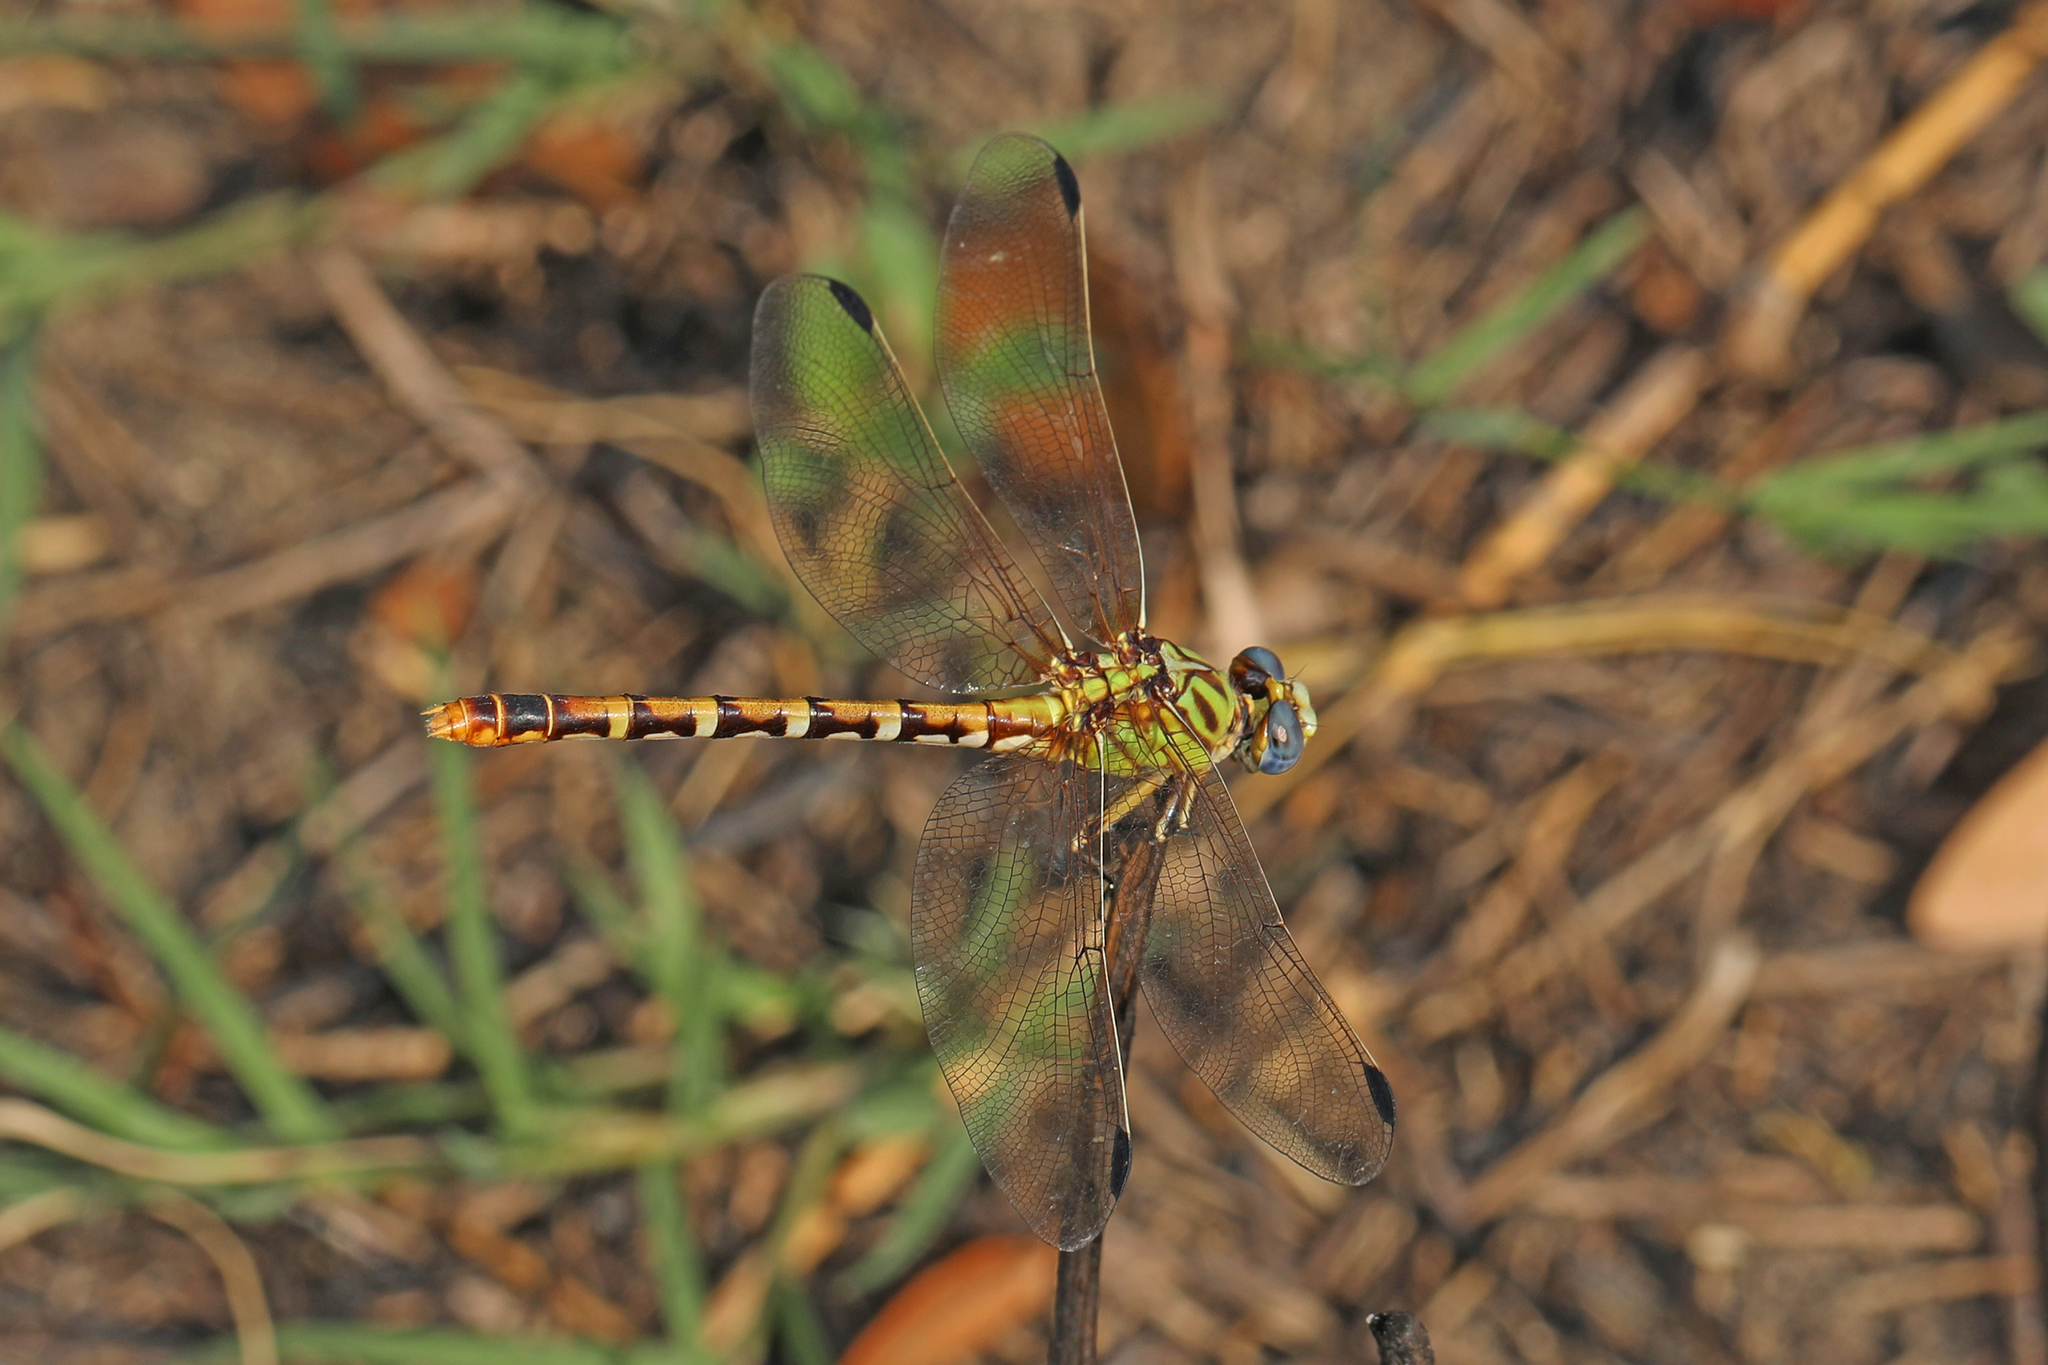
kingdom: Animalia
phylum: Arthropoda
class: Insecta
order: Odonata
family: Gomphidae
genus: Erpetogomphus
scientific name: Erpetogomphus designatus
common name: Eastern ringtail
